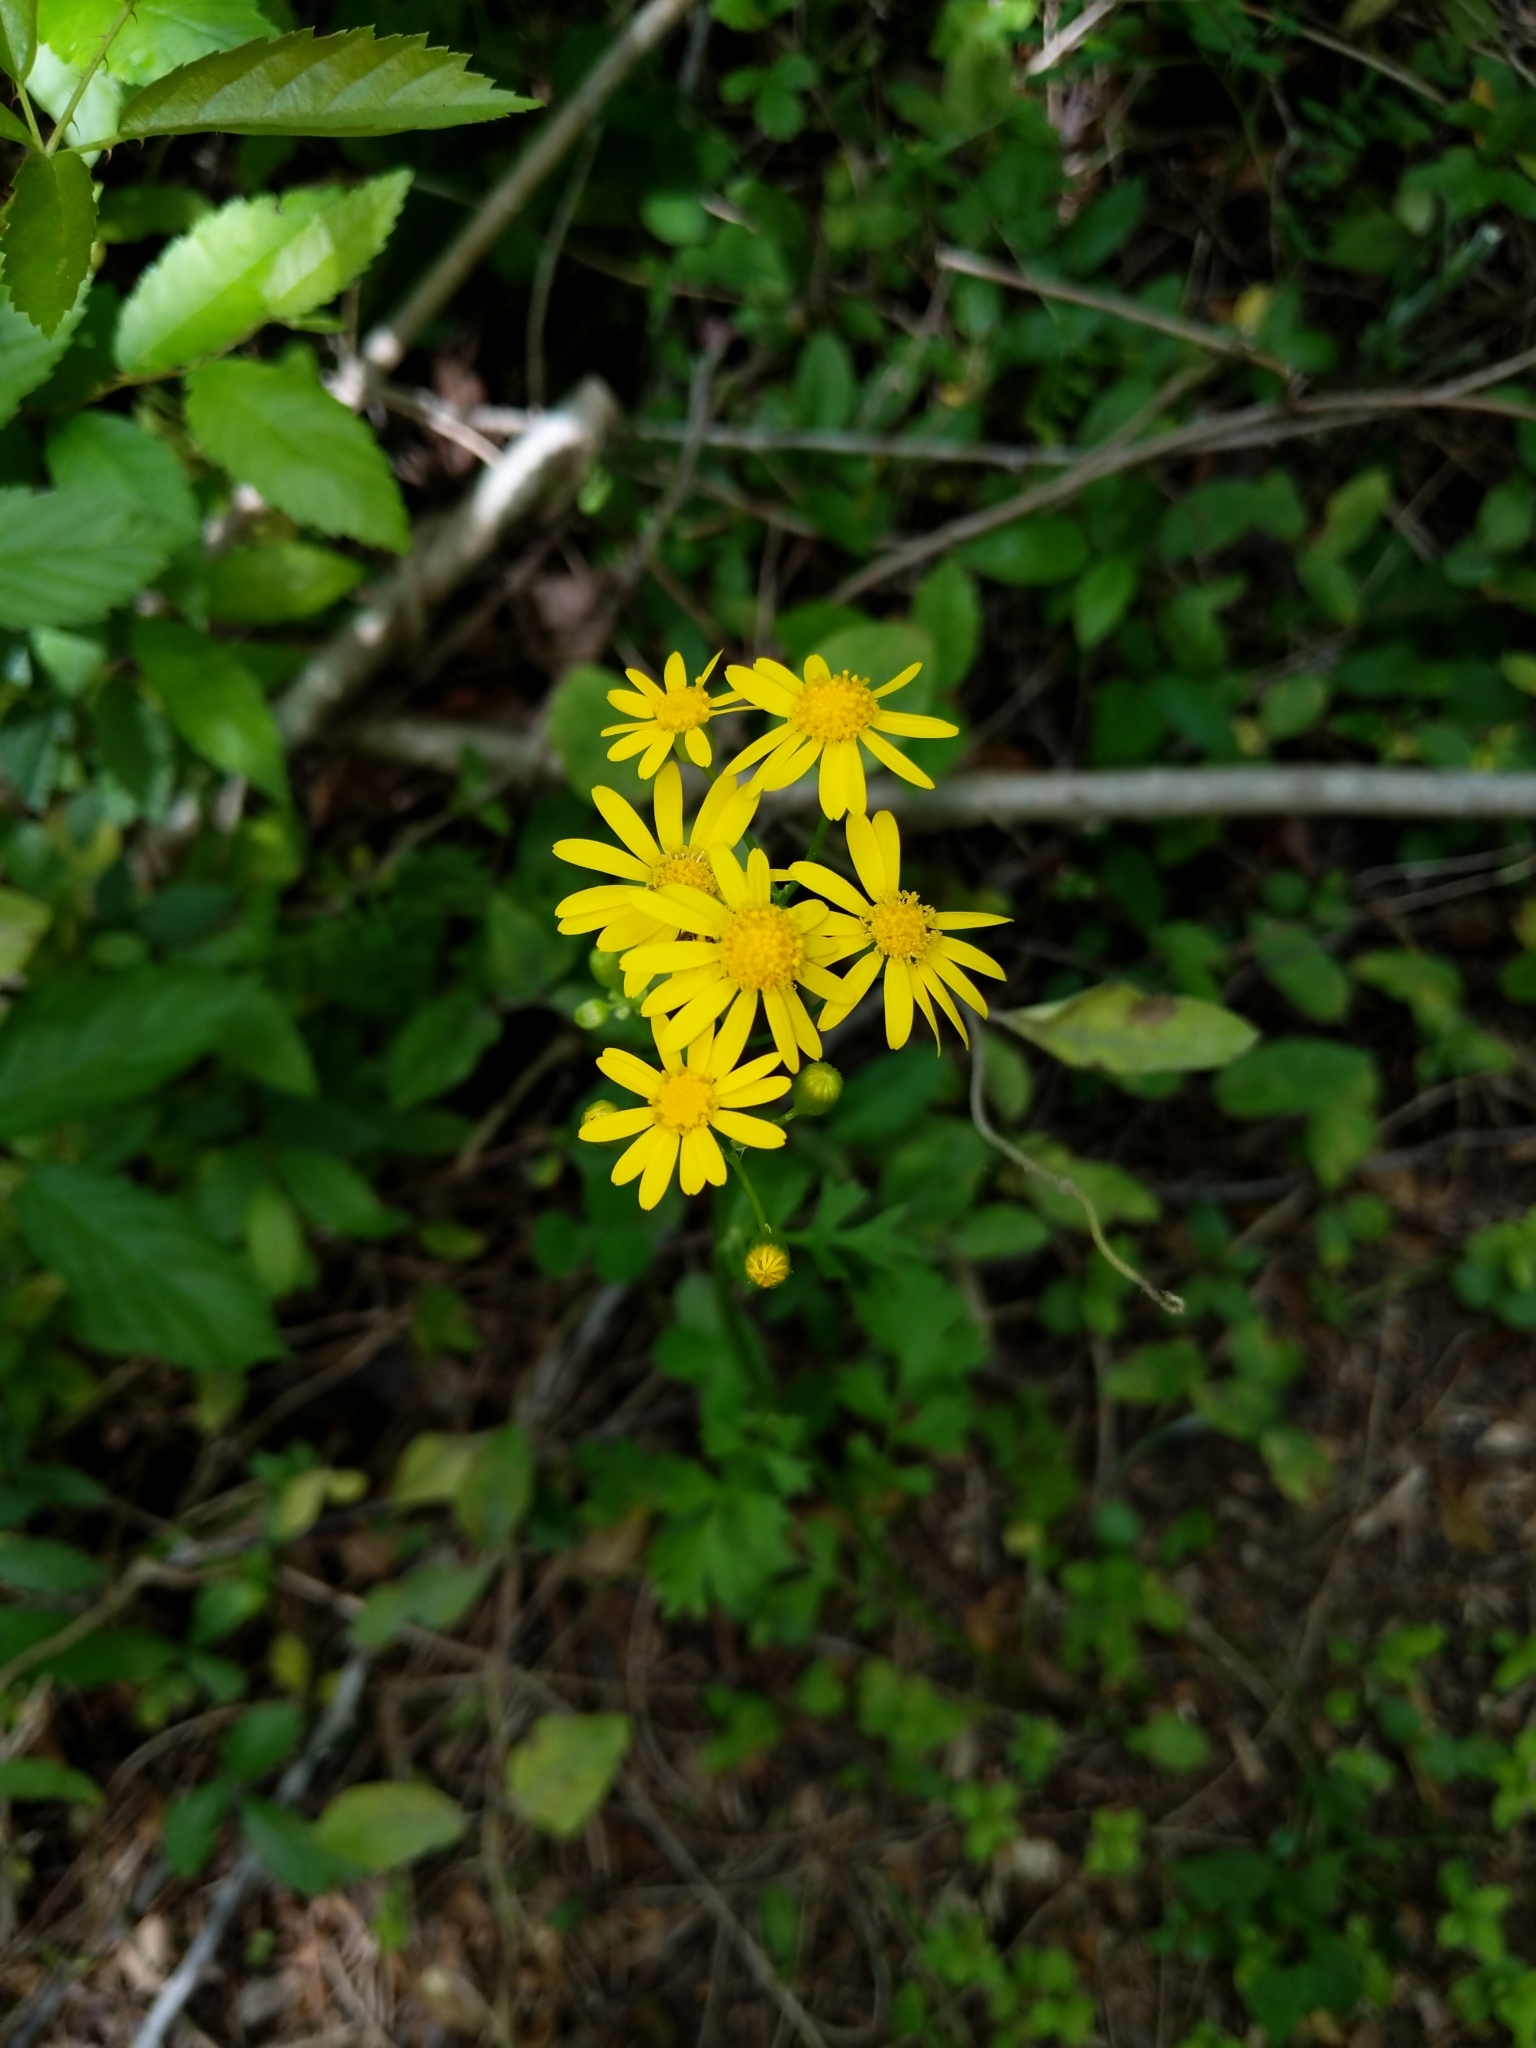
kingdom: Plantae
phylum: Tracheophyta
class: Magnoliopsida
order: Asterales
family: Asteraceae
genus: Packera
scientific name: Packera glabella
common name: Butterweed
